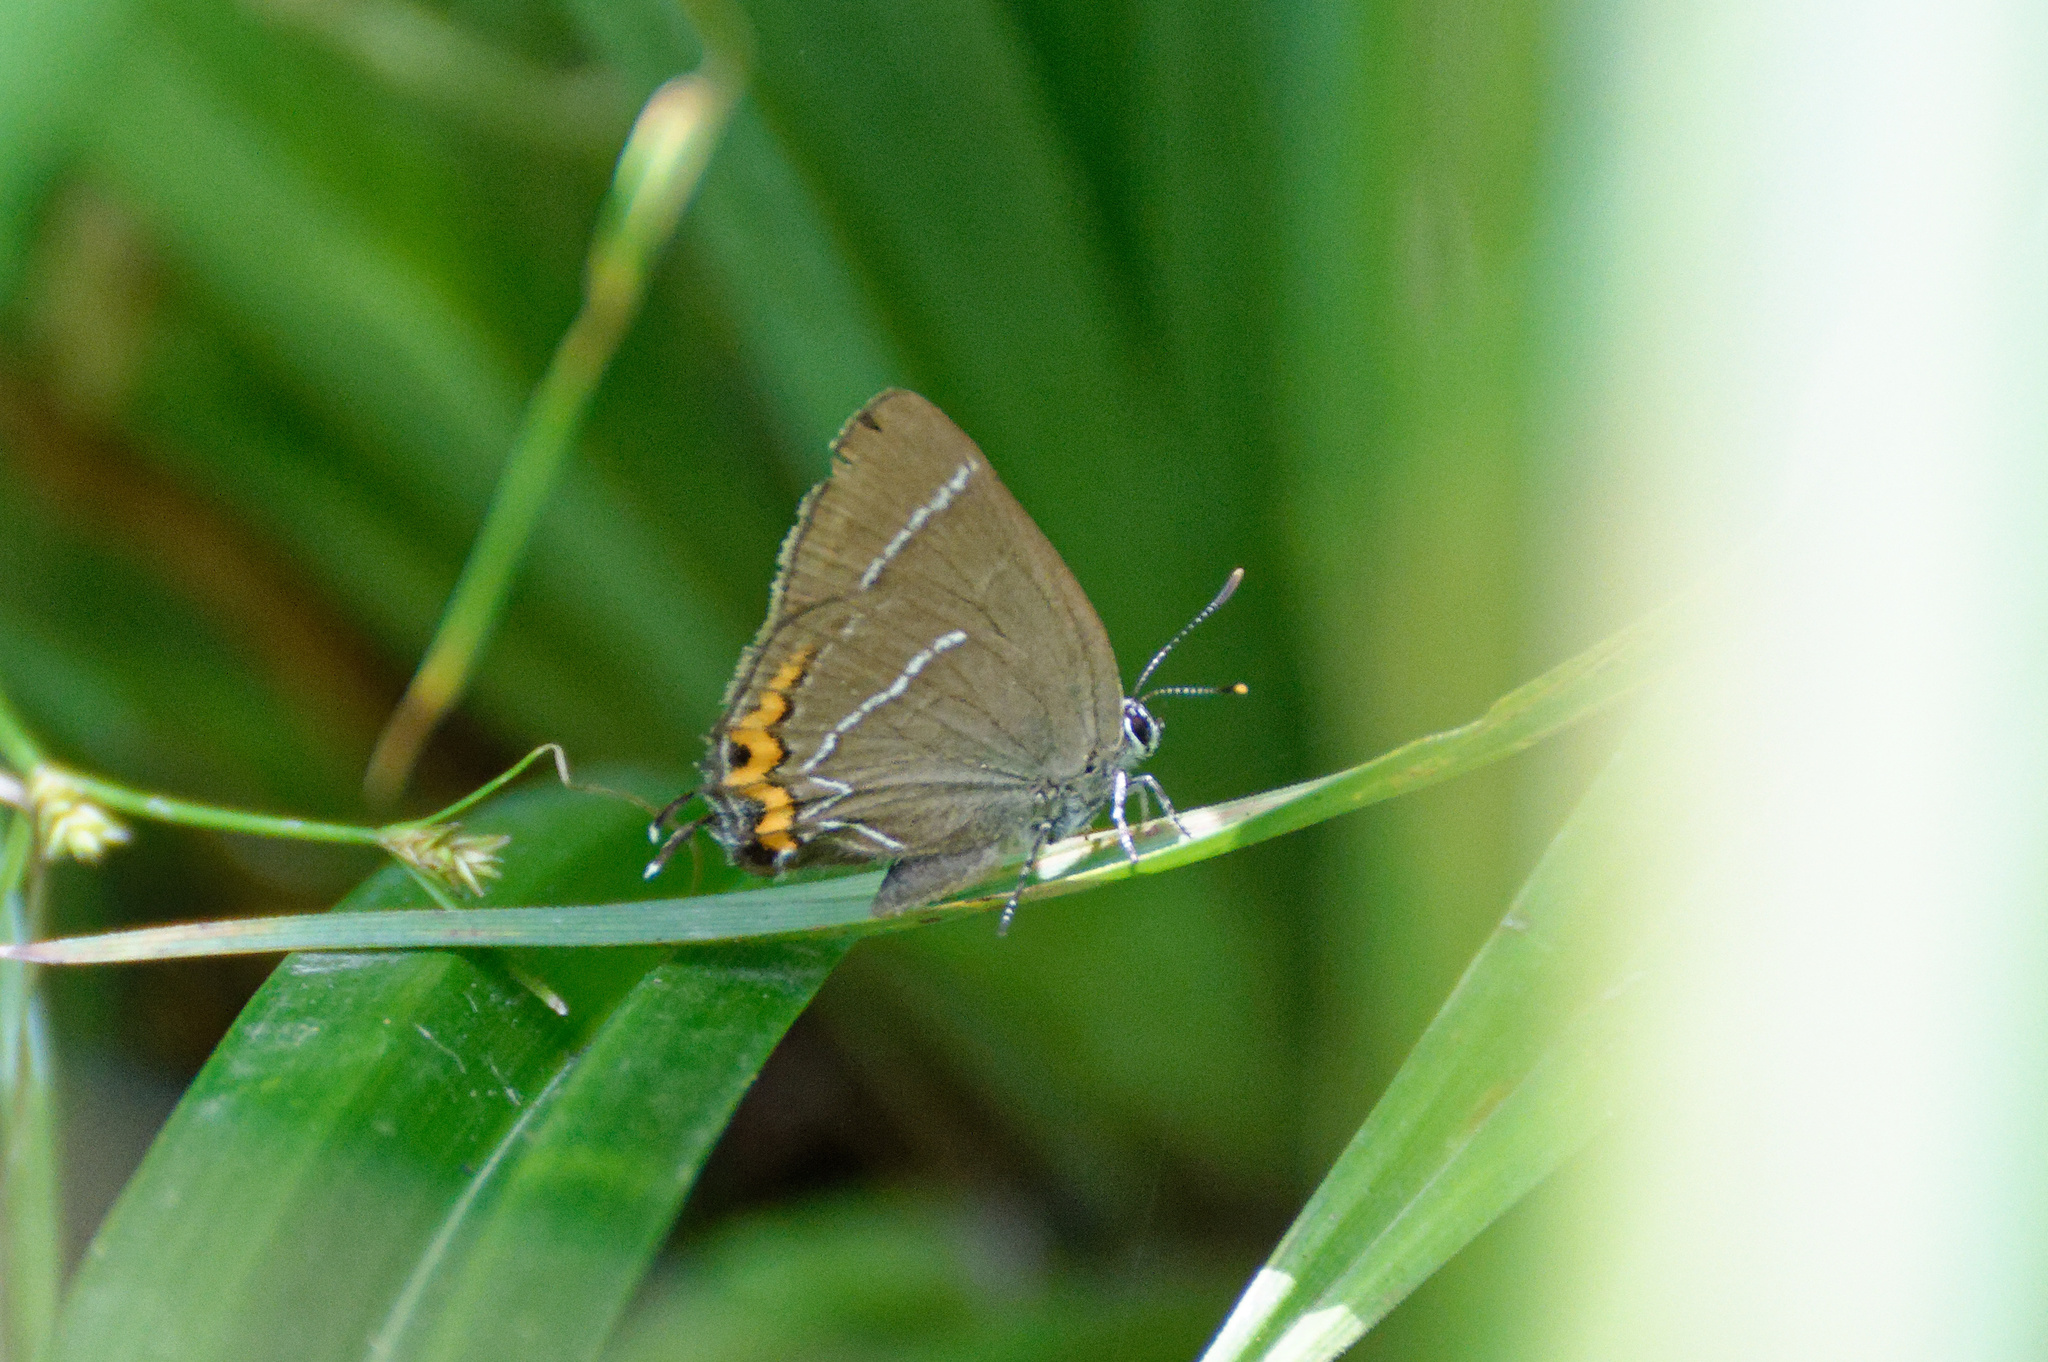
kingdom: Animalia
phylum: Arthropoda
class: Insecta
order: Lepidoptera
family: Lycaenidae
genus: Satyrium
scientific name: Satyrium w-album
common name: White-letter hairstreak
